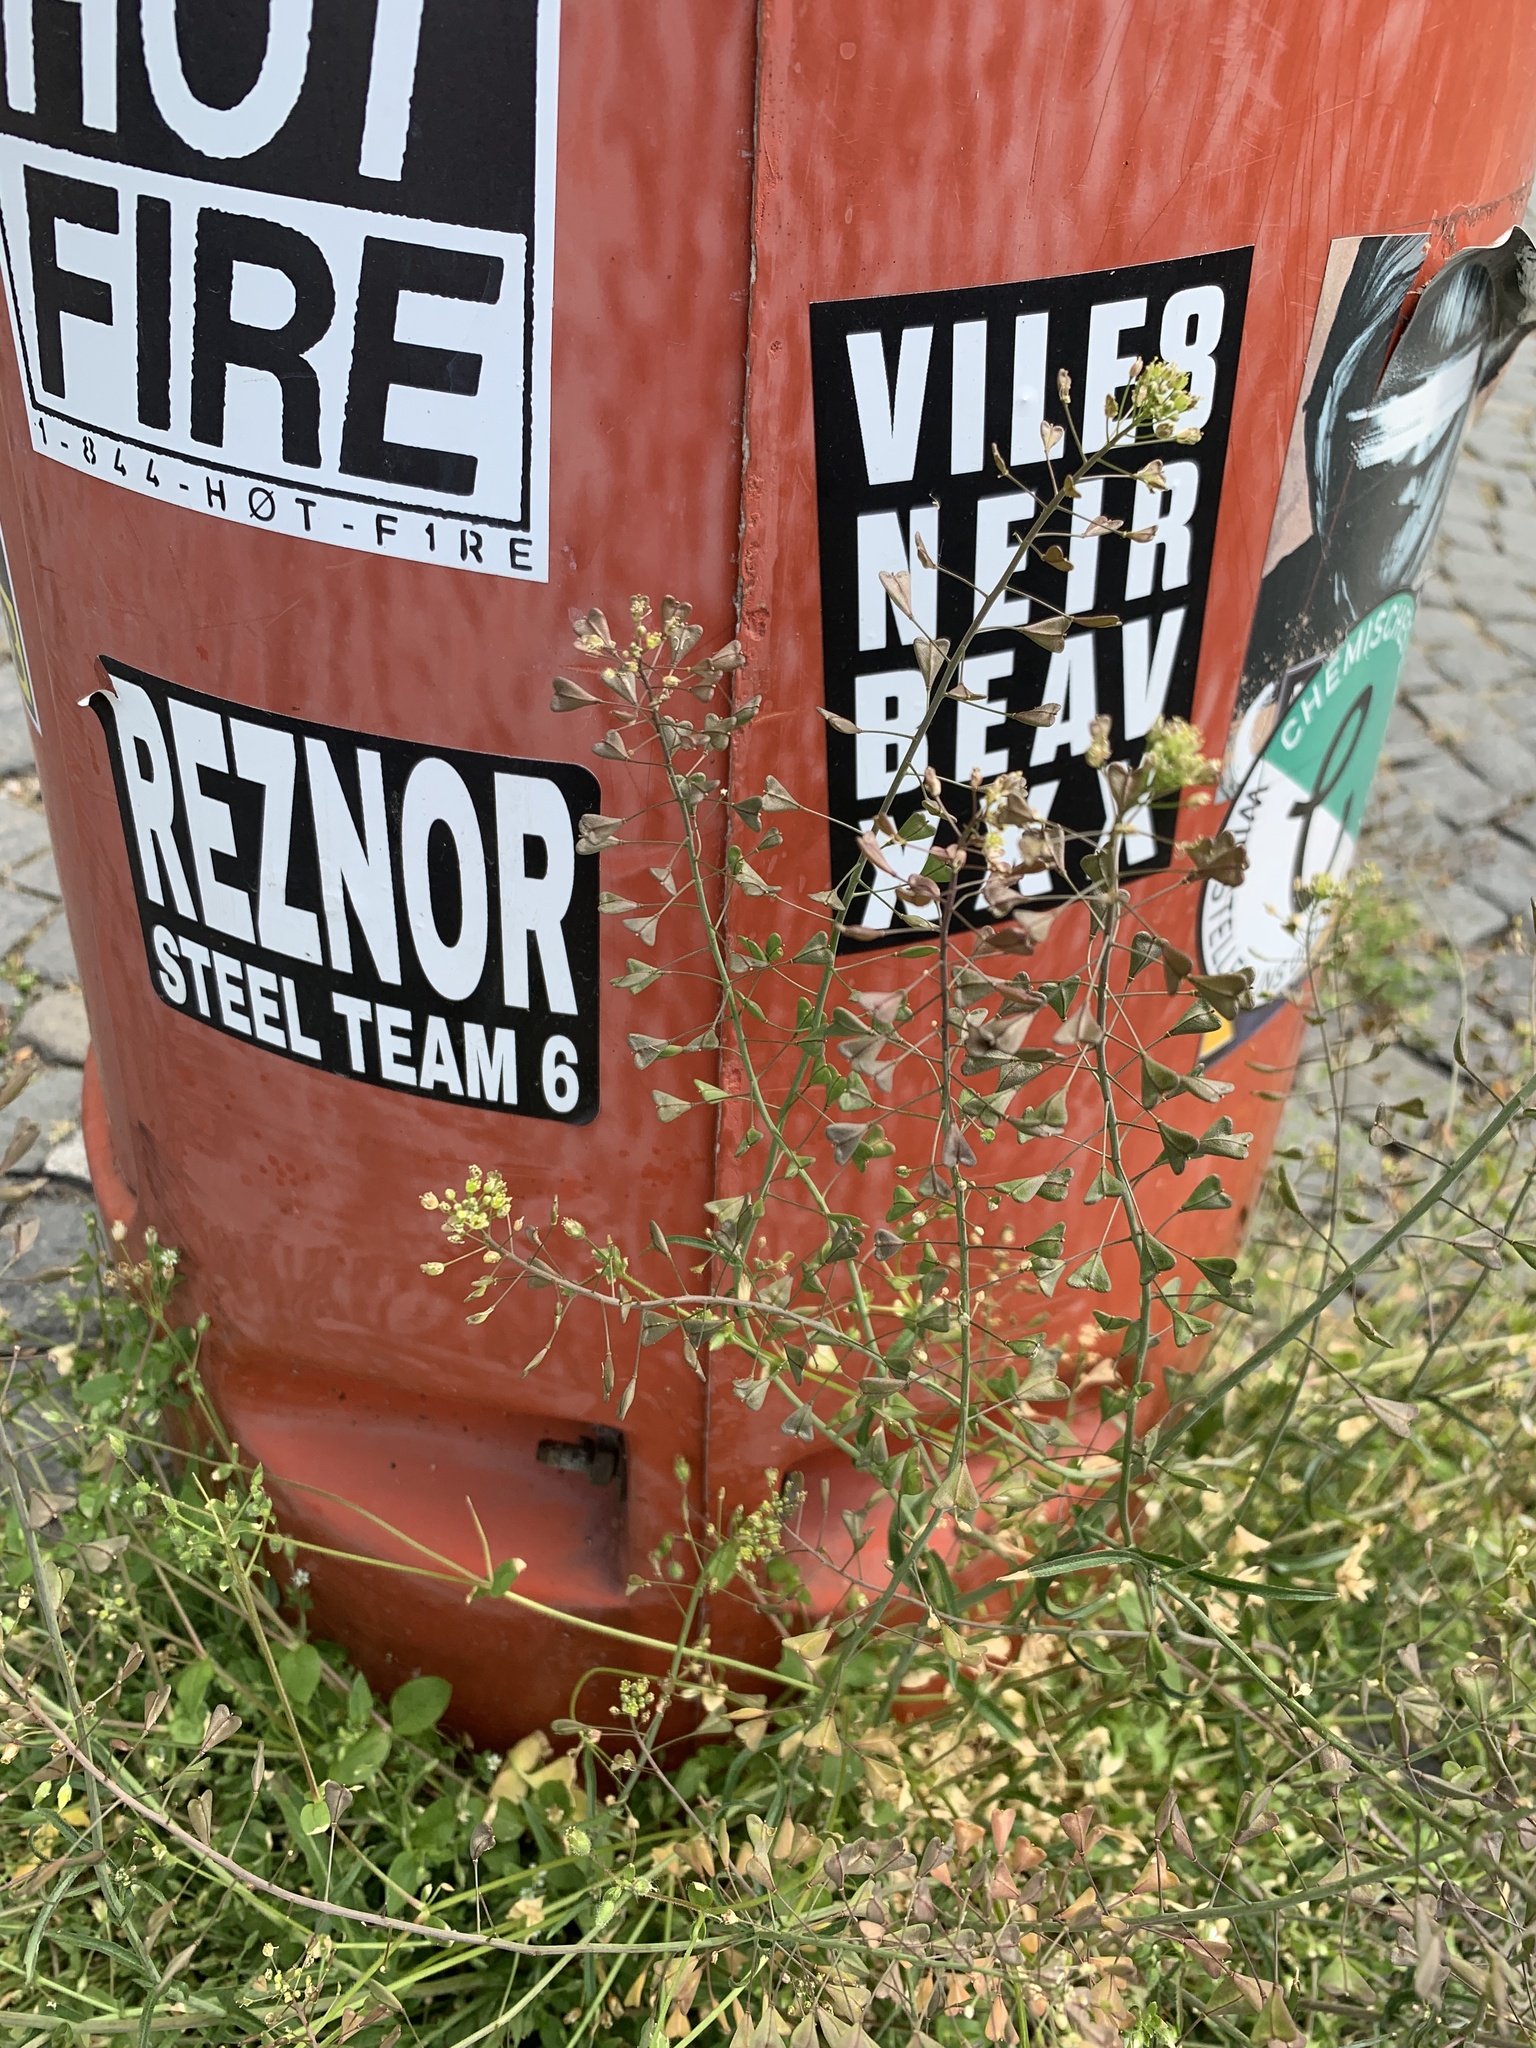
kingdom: Plantae
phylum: Tracheophyta
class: Magnoliopsida
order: Brassicales
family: Brassicaceae
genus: Capsella
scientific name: Capsella bursa-pastoris
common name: Shepherd's purse
